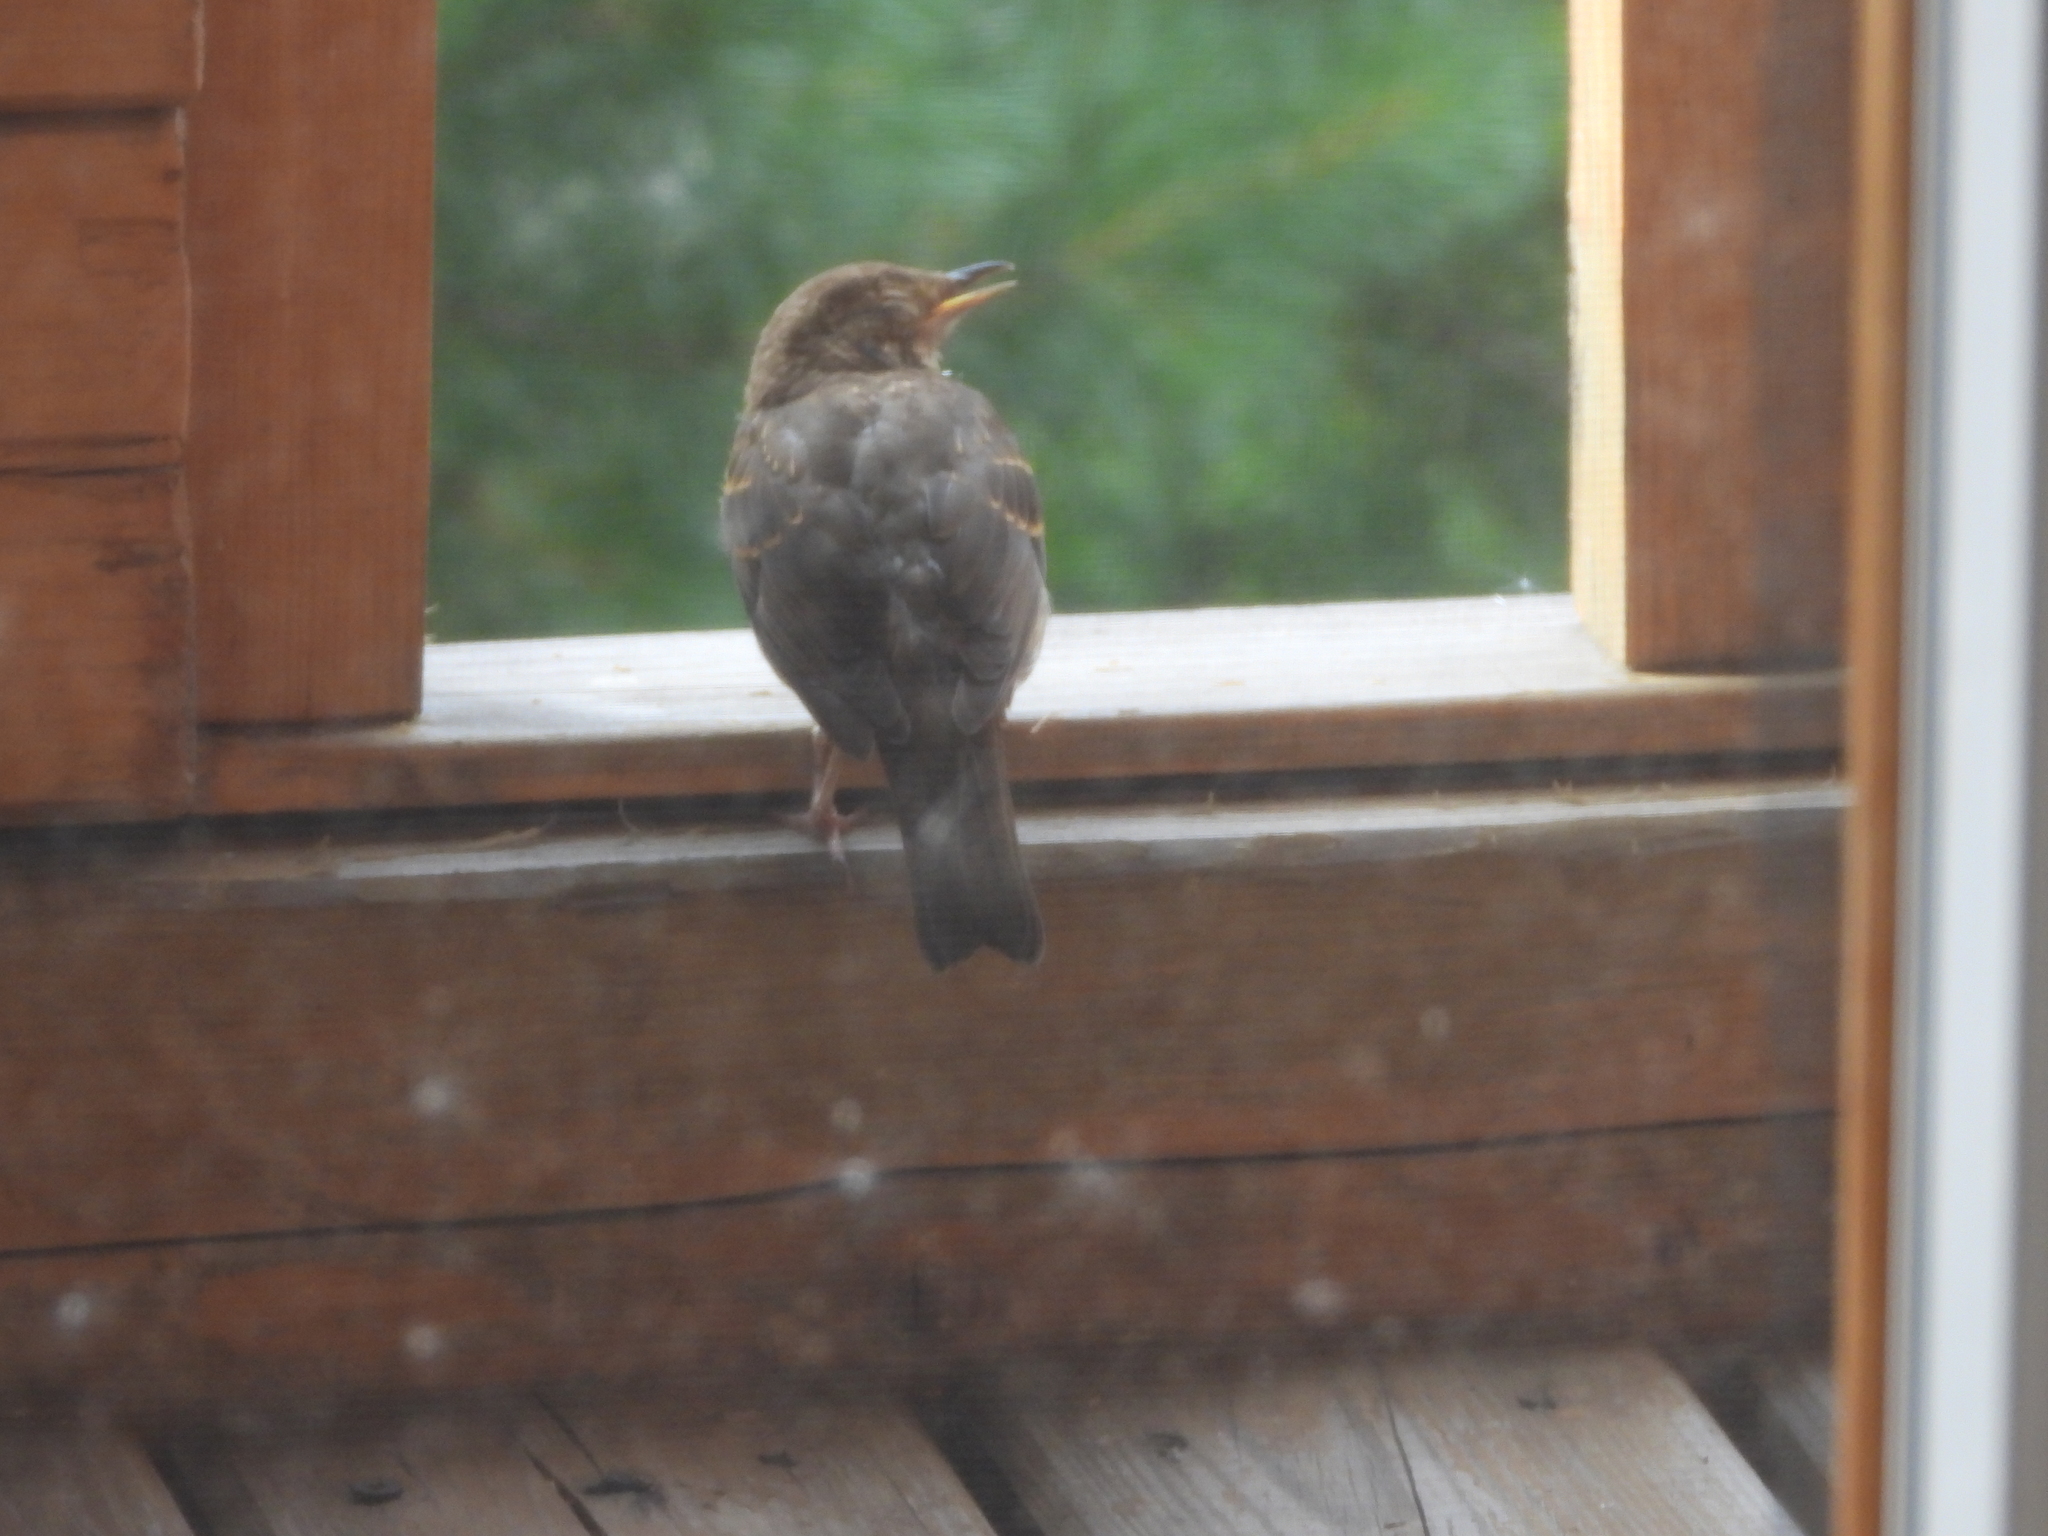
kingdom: Animalia
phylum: Chordata
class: Aves
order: Passeriformes
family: Turdidae
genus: Turdus
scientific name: Turdus merula
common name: Common blackbird
